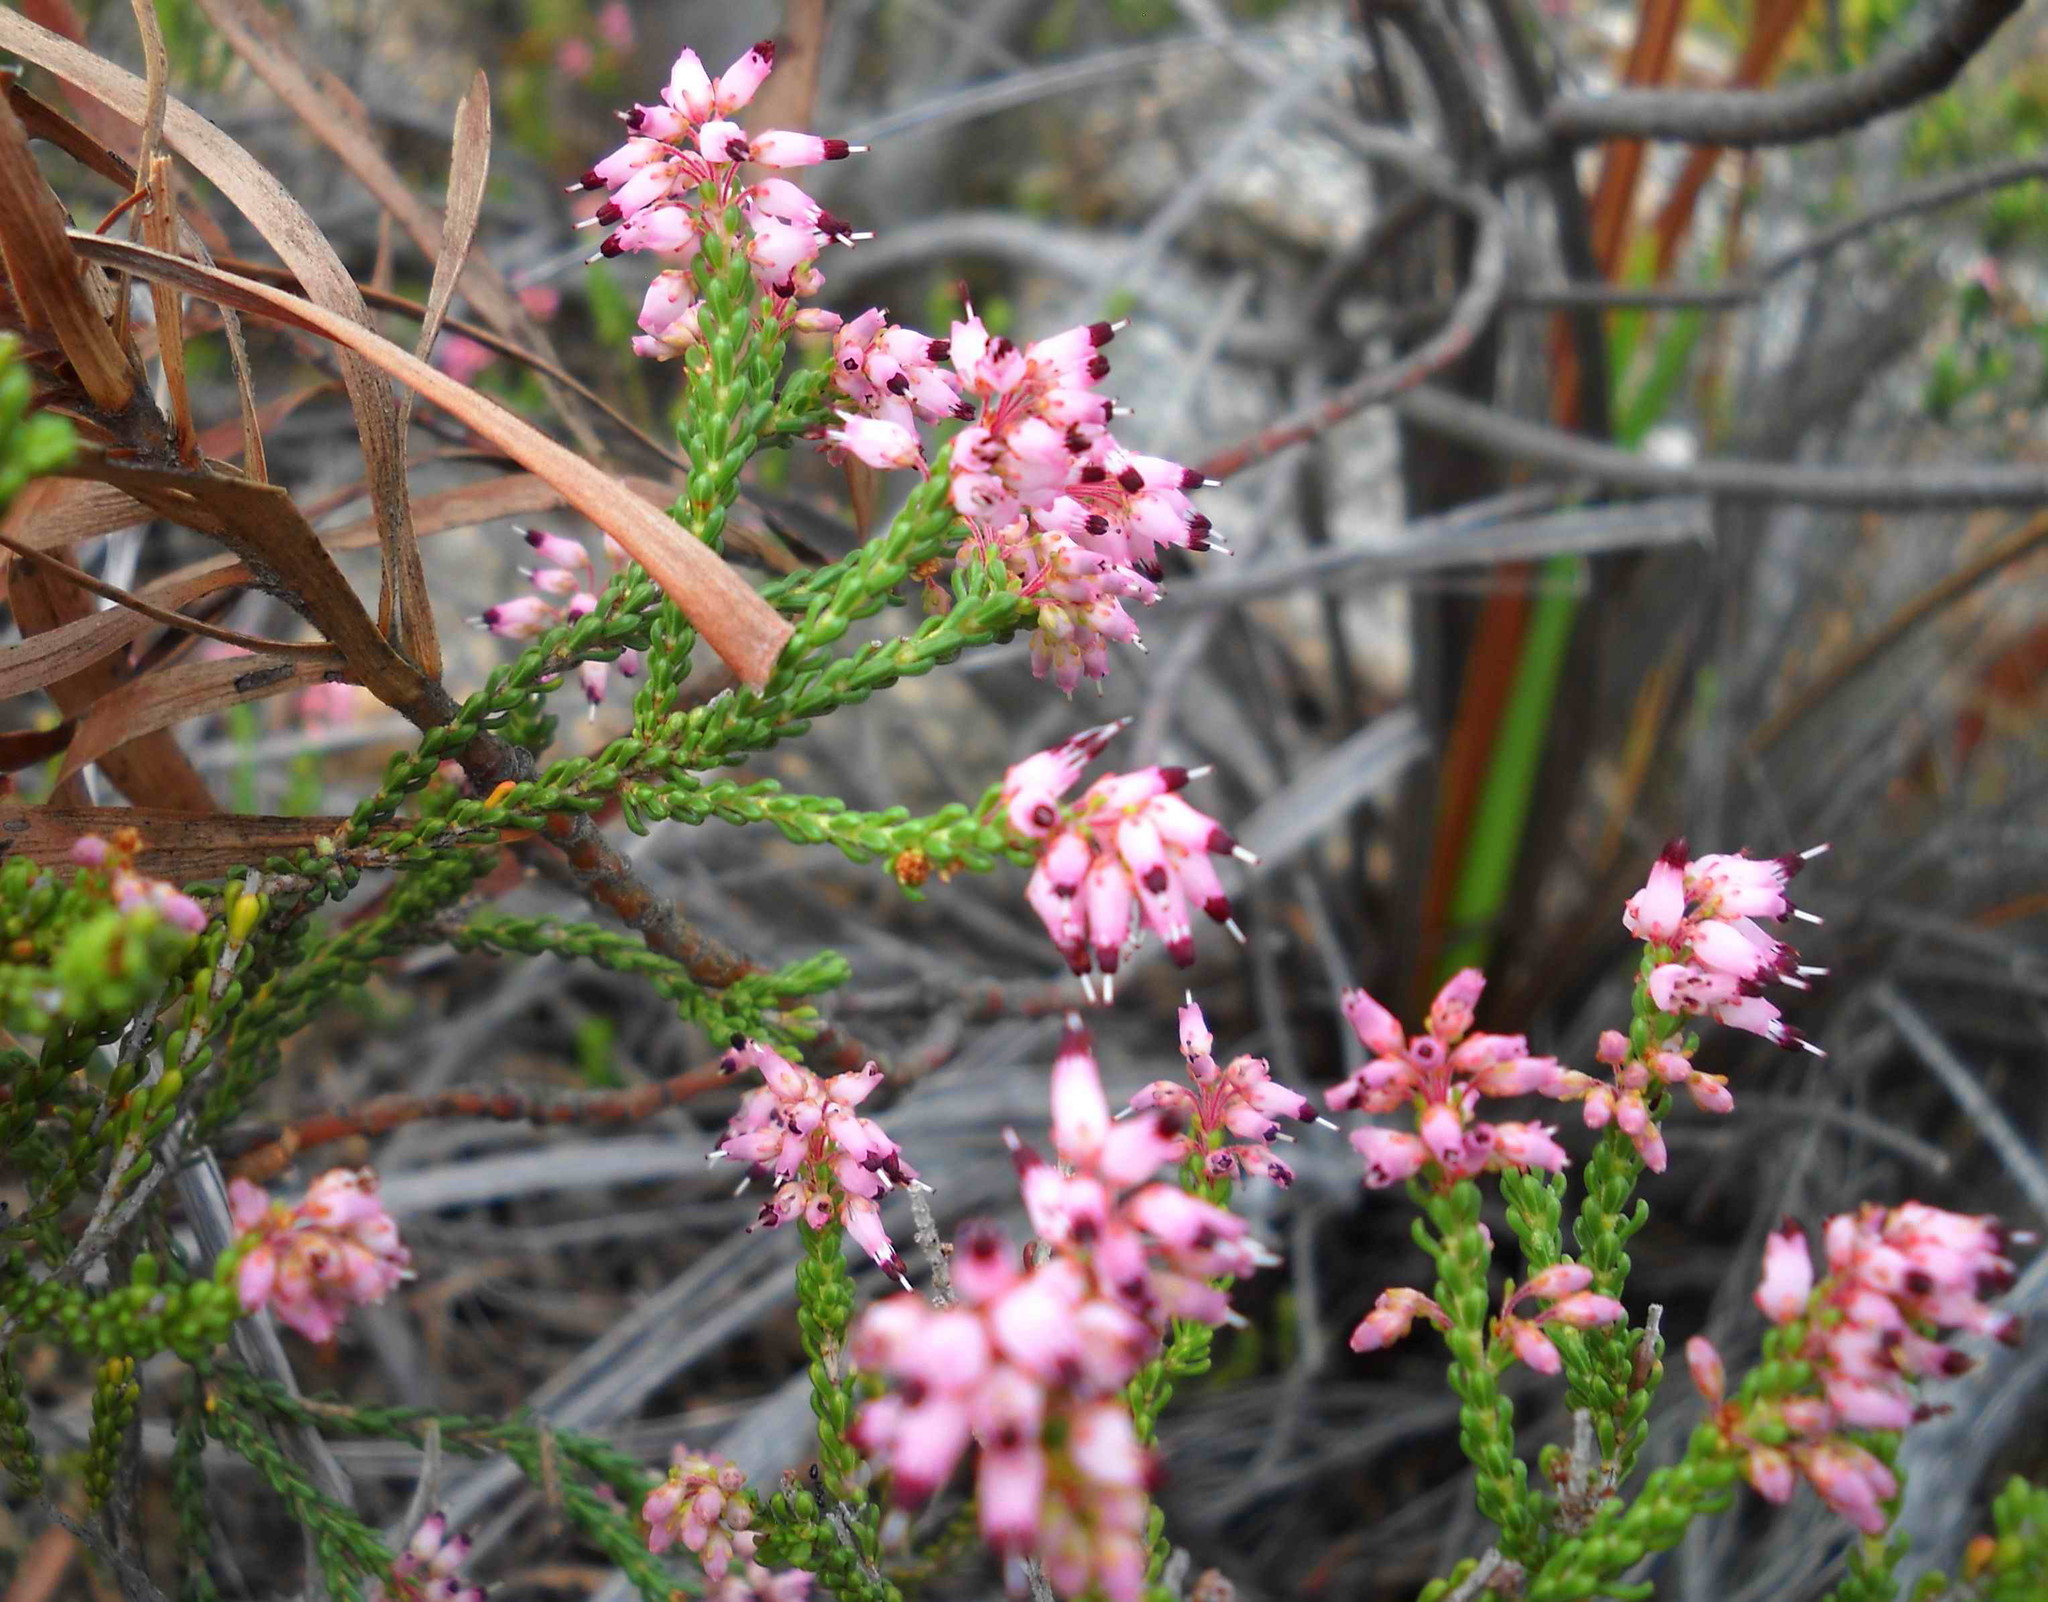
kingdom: Plantae
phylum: Tracheophyta
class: Magnoliopsida
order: Ericales
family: Ericaceae
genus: Erica
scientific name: Erica petraea
